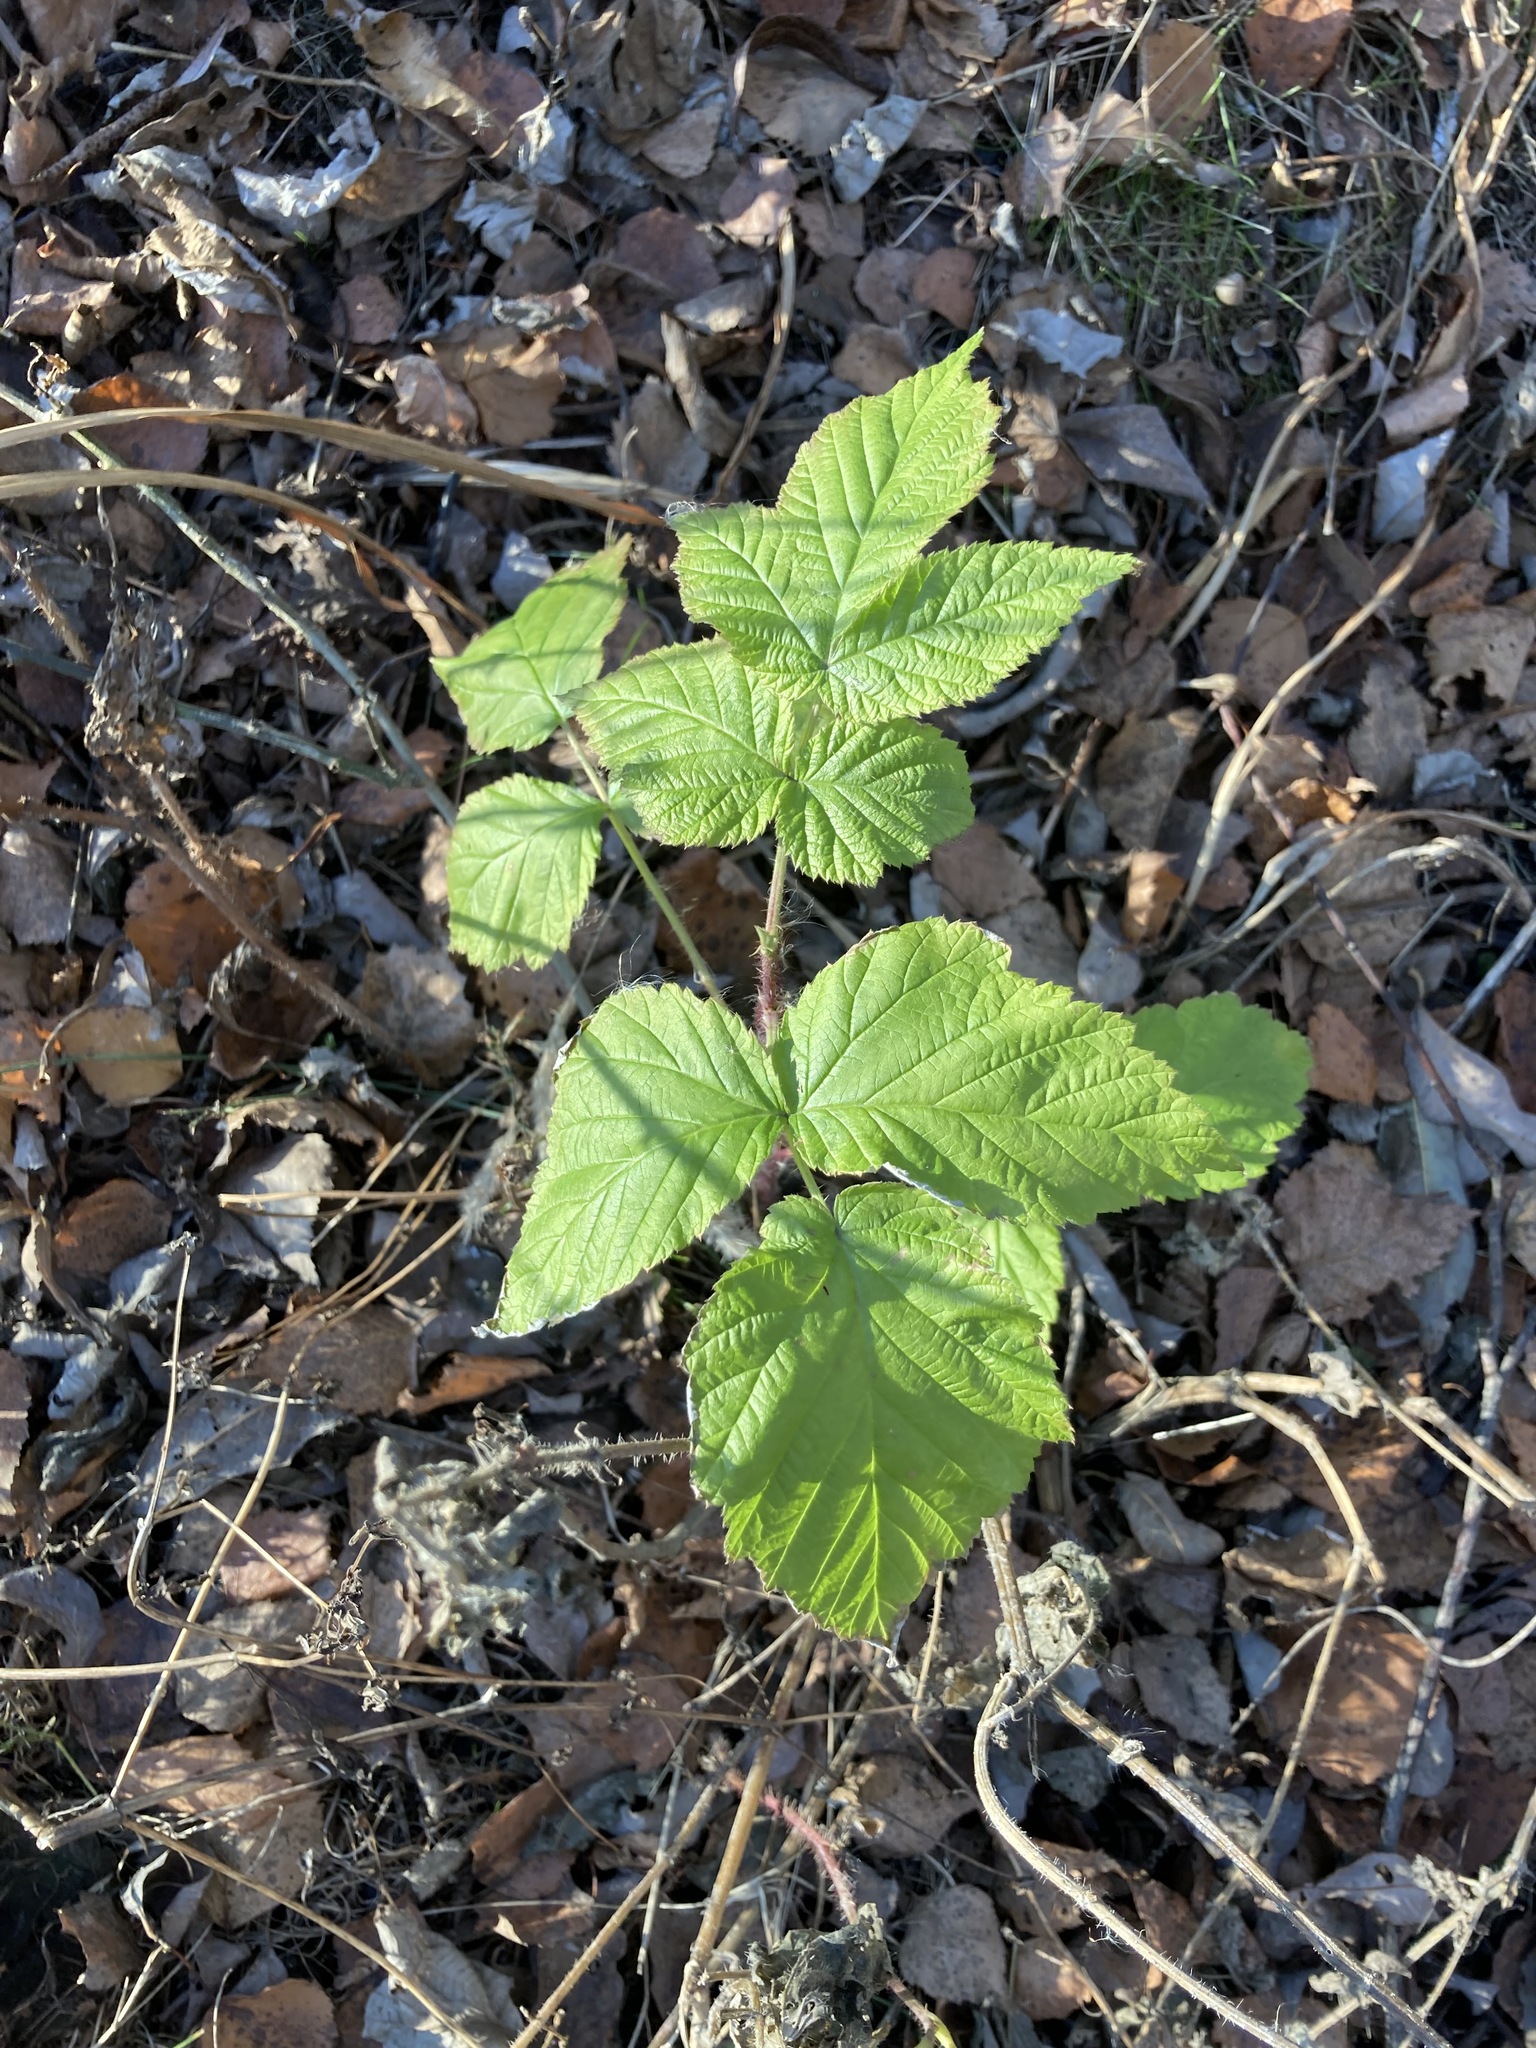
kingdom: Plantae
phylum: Tracheophyta
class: Magnoliopsida
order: Rosales
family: Rosaceae
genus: Rubus
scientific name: Rubus idaeus
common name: Raspberry
